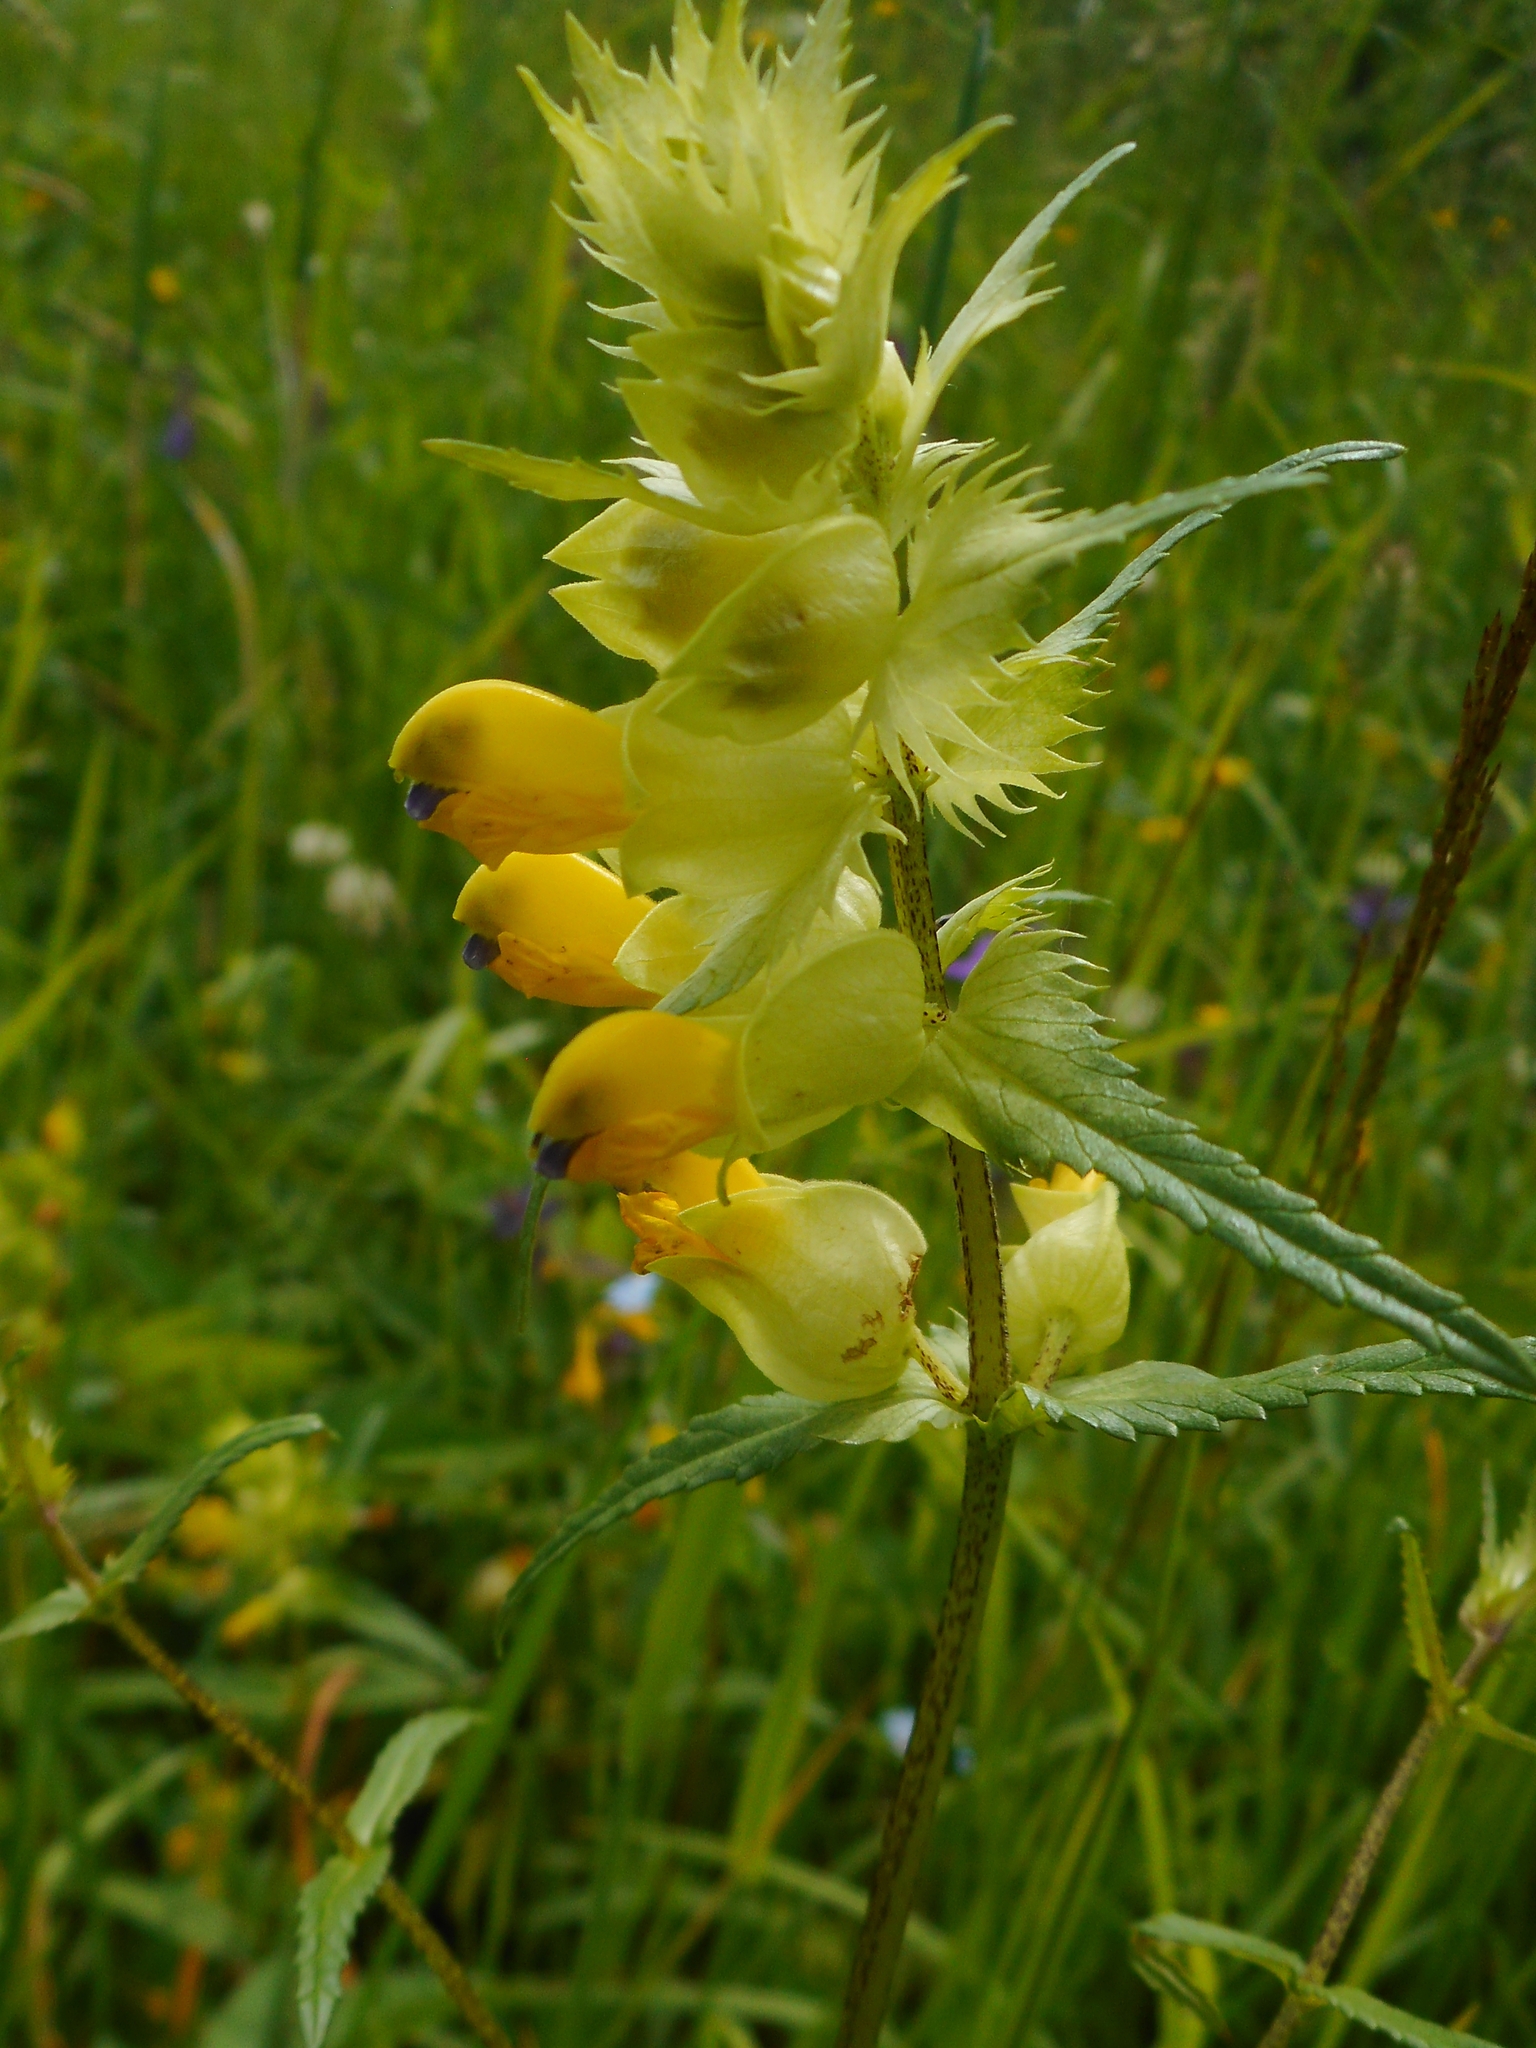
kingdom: Plantae
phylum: Tracheophyta
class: Magnoliopsida
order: Lamiales
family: Orobanchaceae
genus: Rhinanthus
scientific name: Rhinanthus serotinus
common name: Late-flowering yellow rattle
